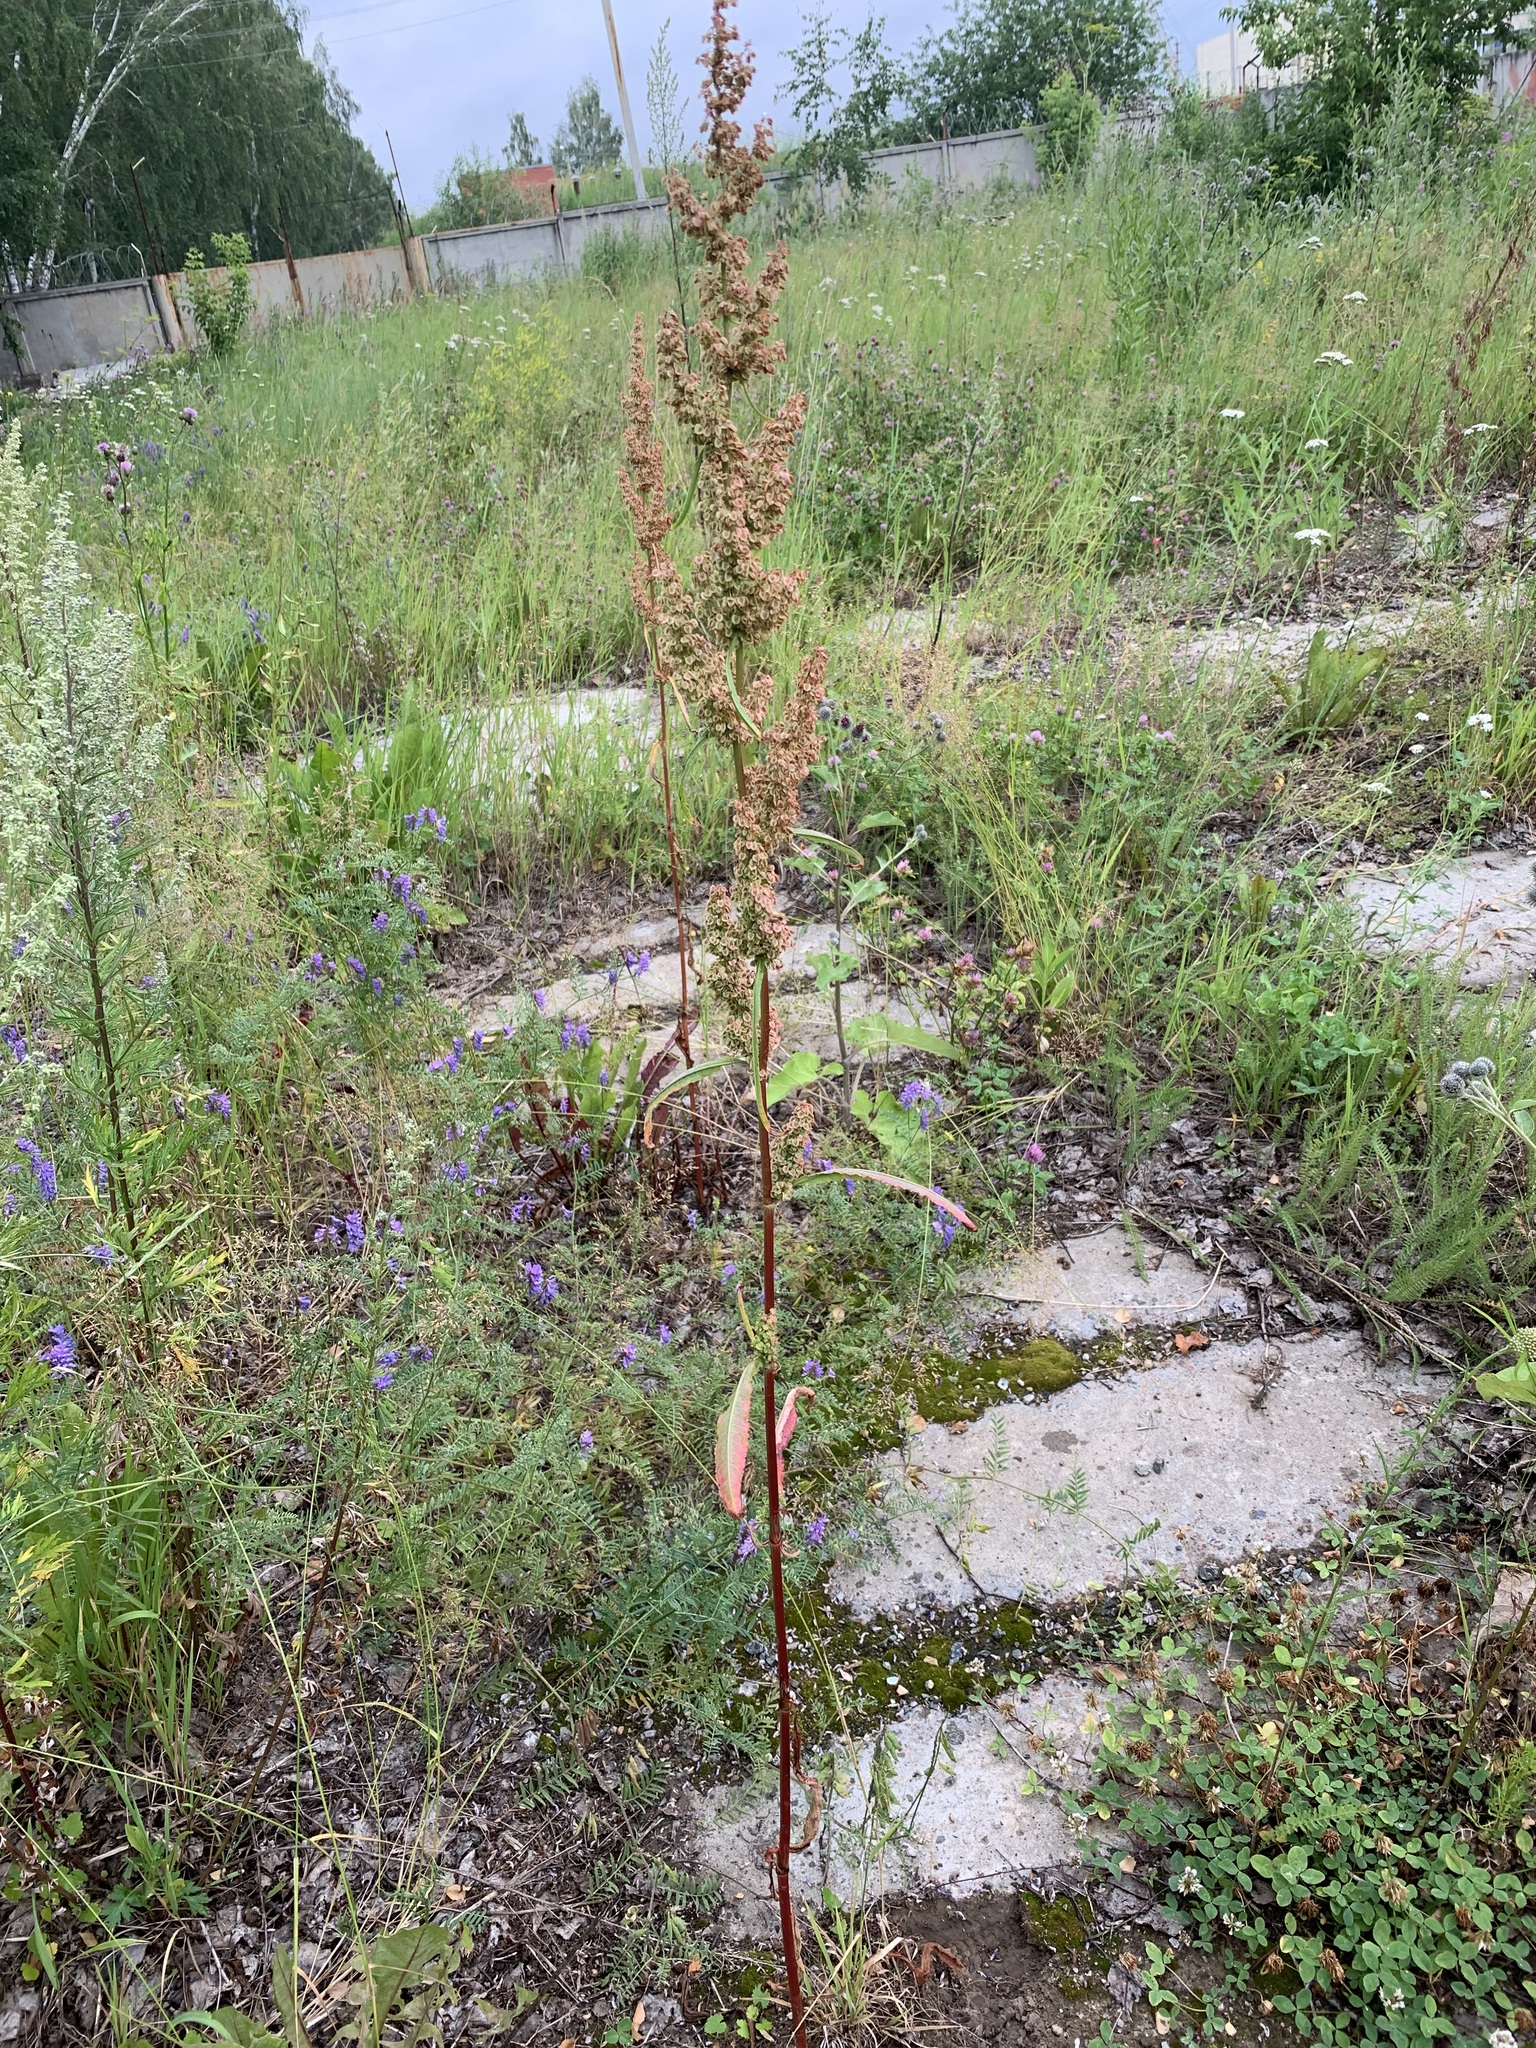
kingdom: Plantae
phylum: Tracheophyta
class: Magnoliopsida
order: Caryophyllales
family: Polygonaceae
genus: Rumex
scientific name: Rumex pseudonatronatus
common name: Field dock
